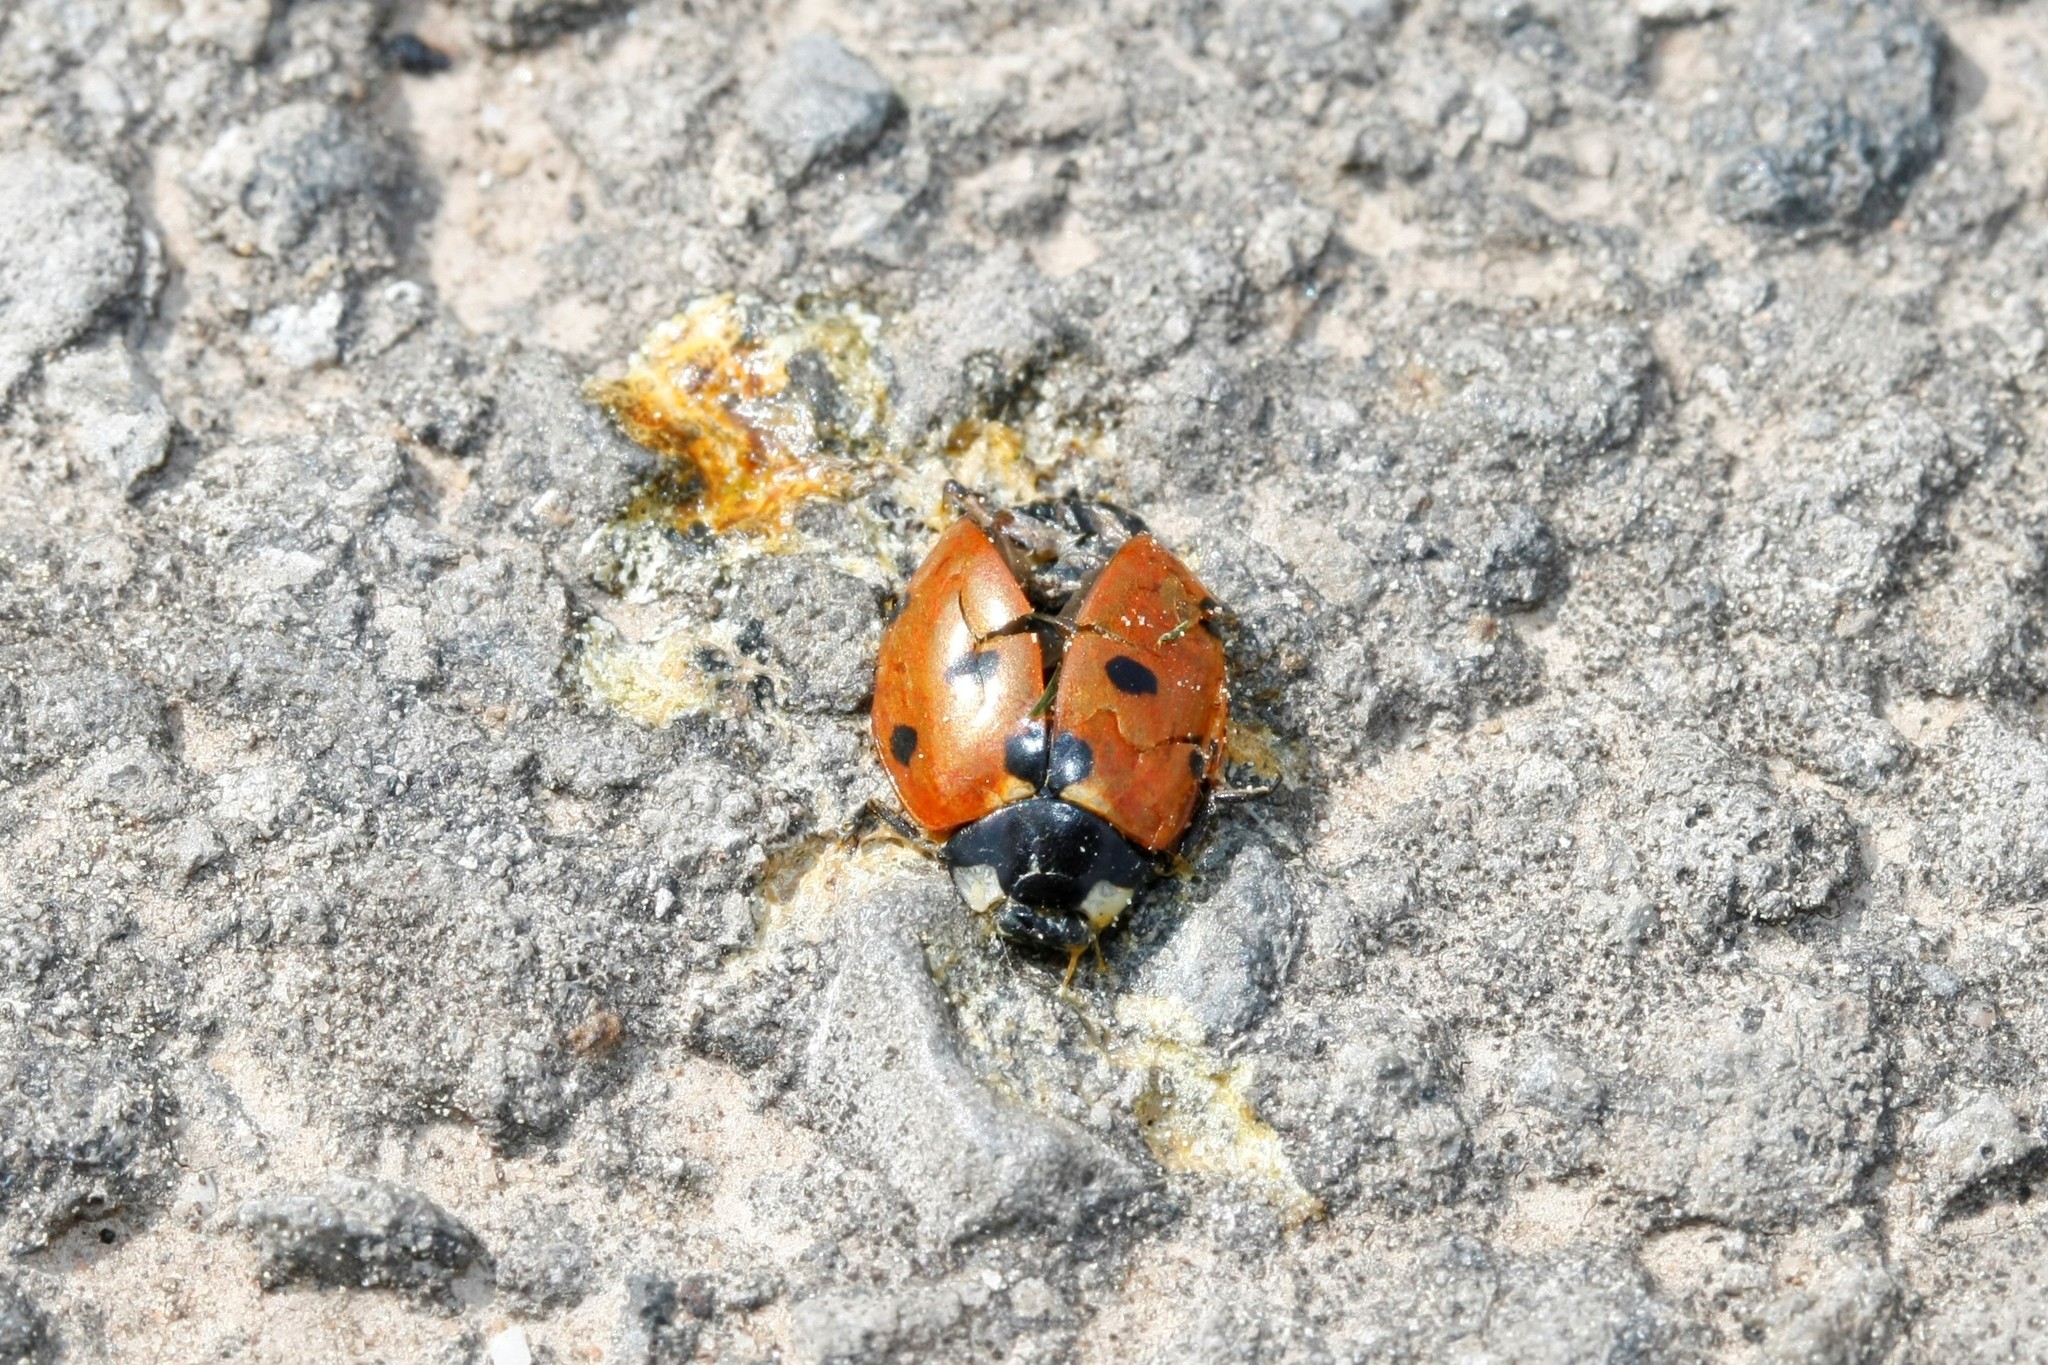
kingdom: Animalia
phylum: Arthropoda
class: Insecta
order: Coleoptera
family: Coccinellidae
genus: Coccinella
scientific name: Coccinella septempunctata
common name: Sevenspotted lady beetle
